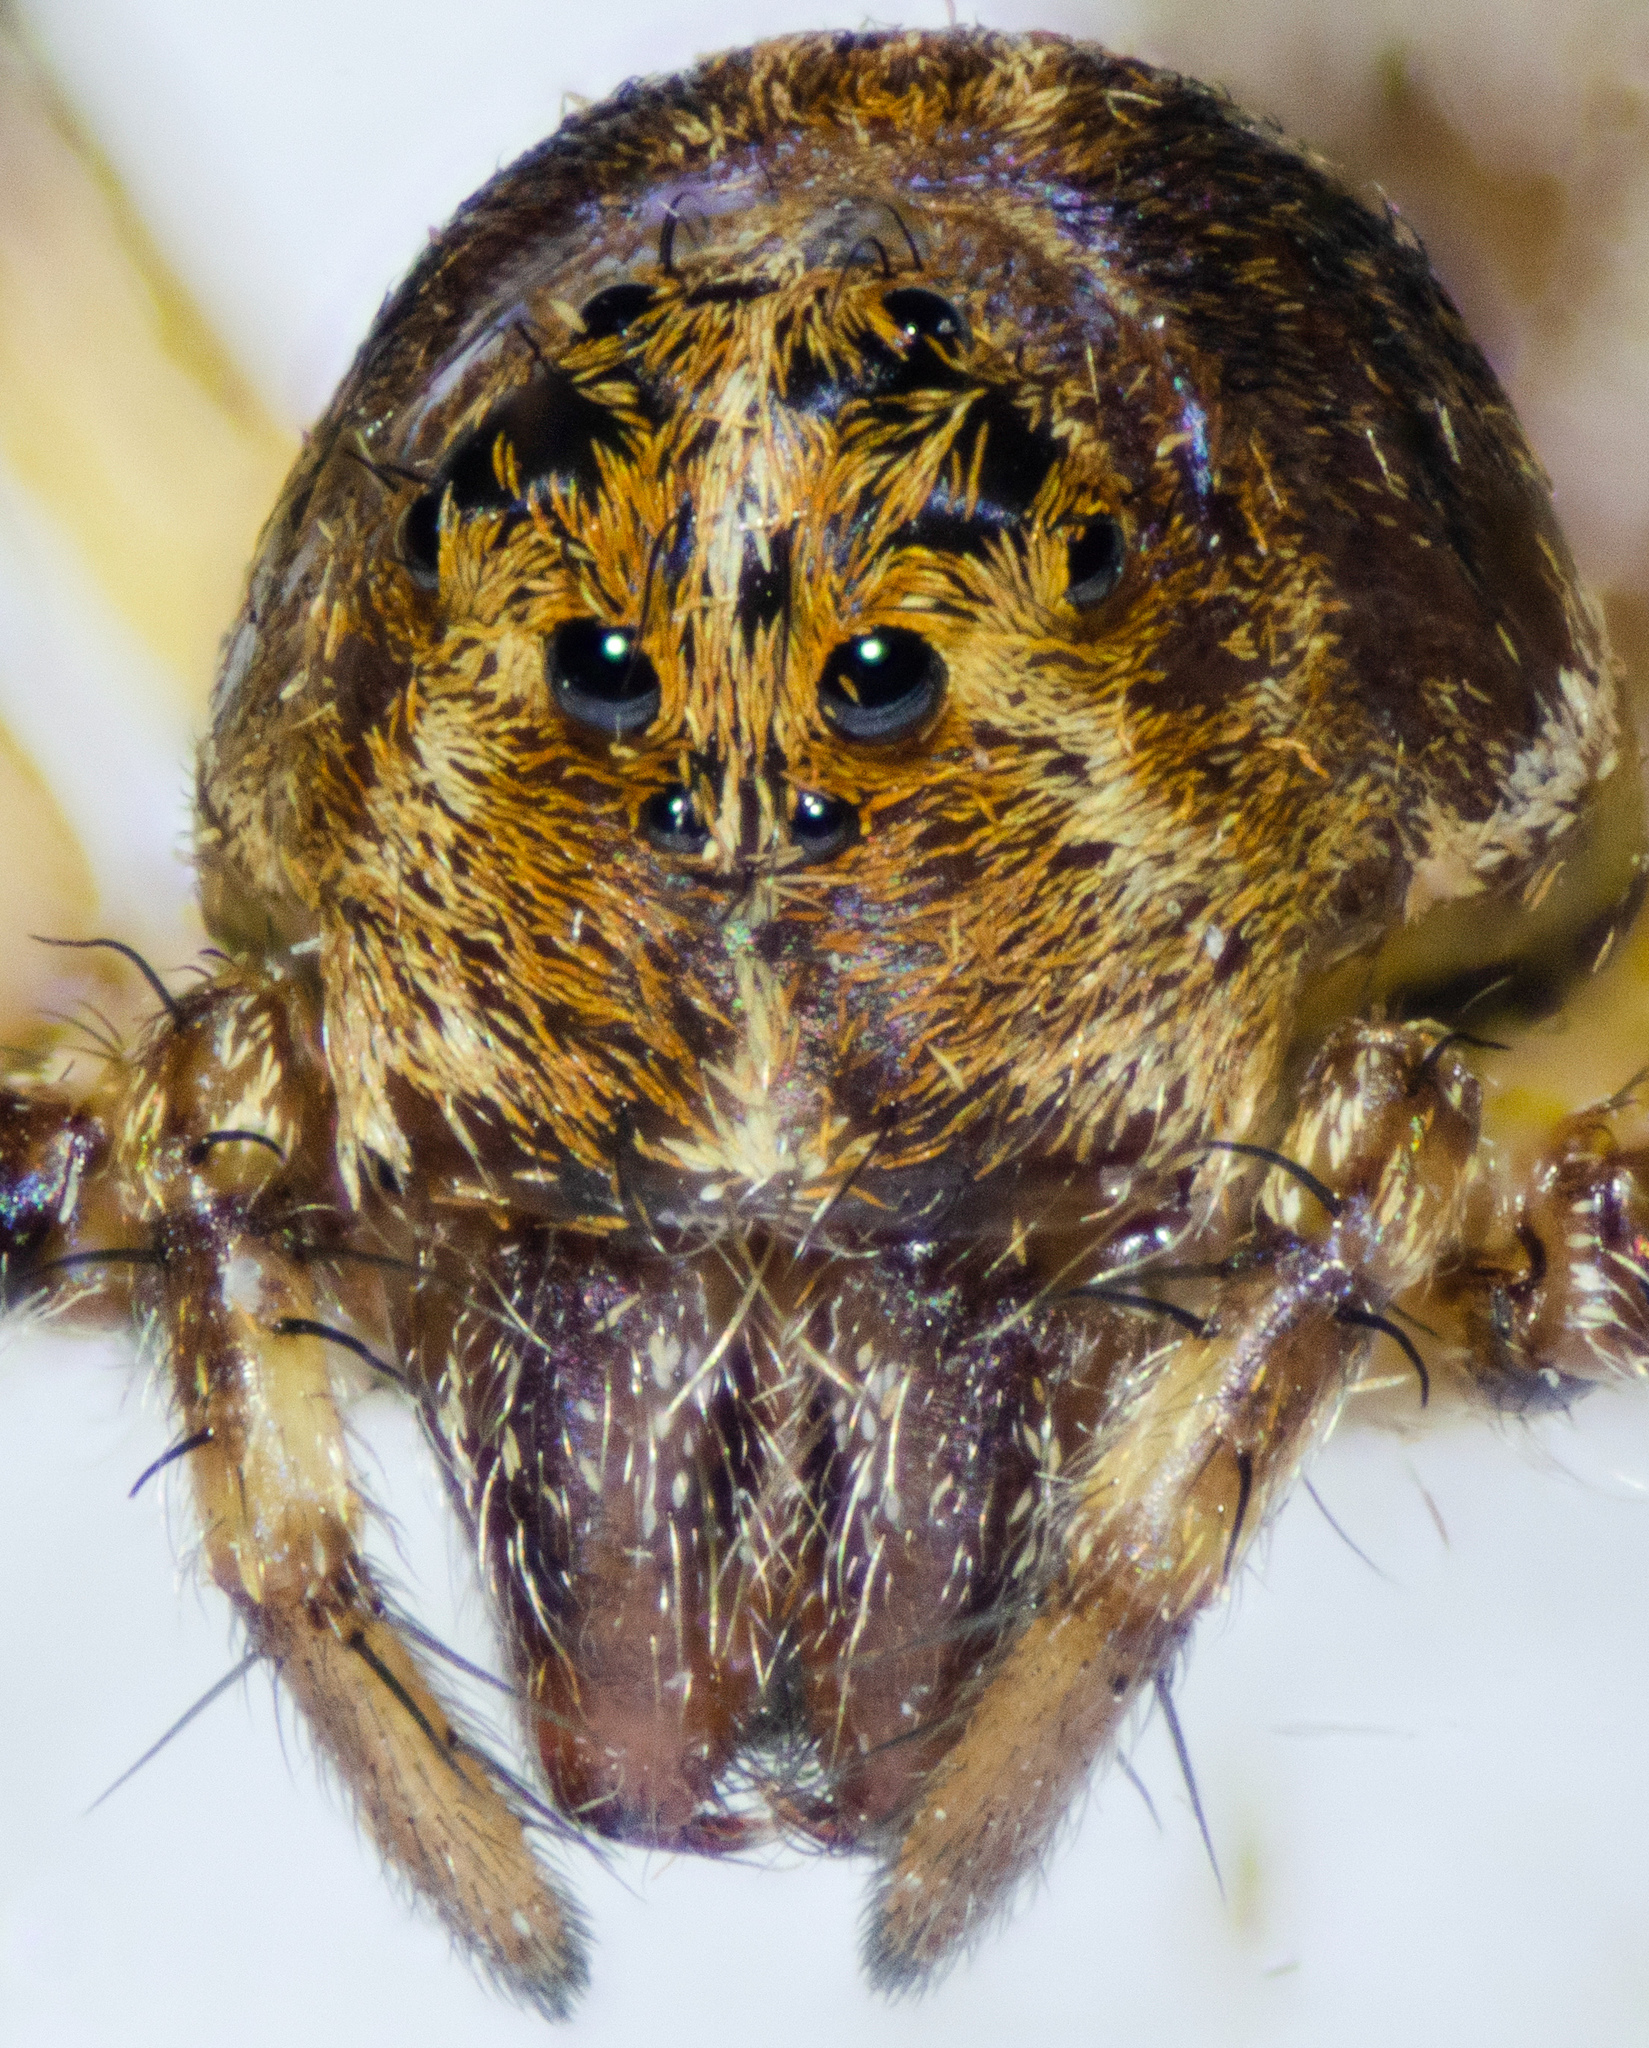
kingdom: Animalia
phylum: Arthropoda
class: Arachnida
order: Araneae
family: Oxyopidae
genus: Oxyopes
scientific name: Oxyopes scalaris
